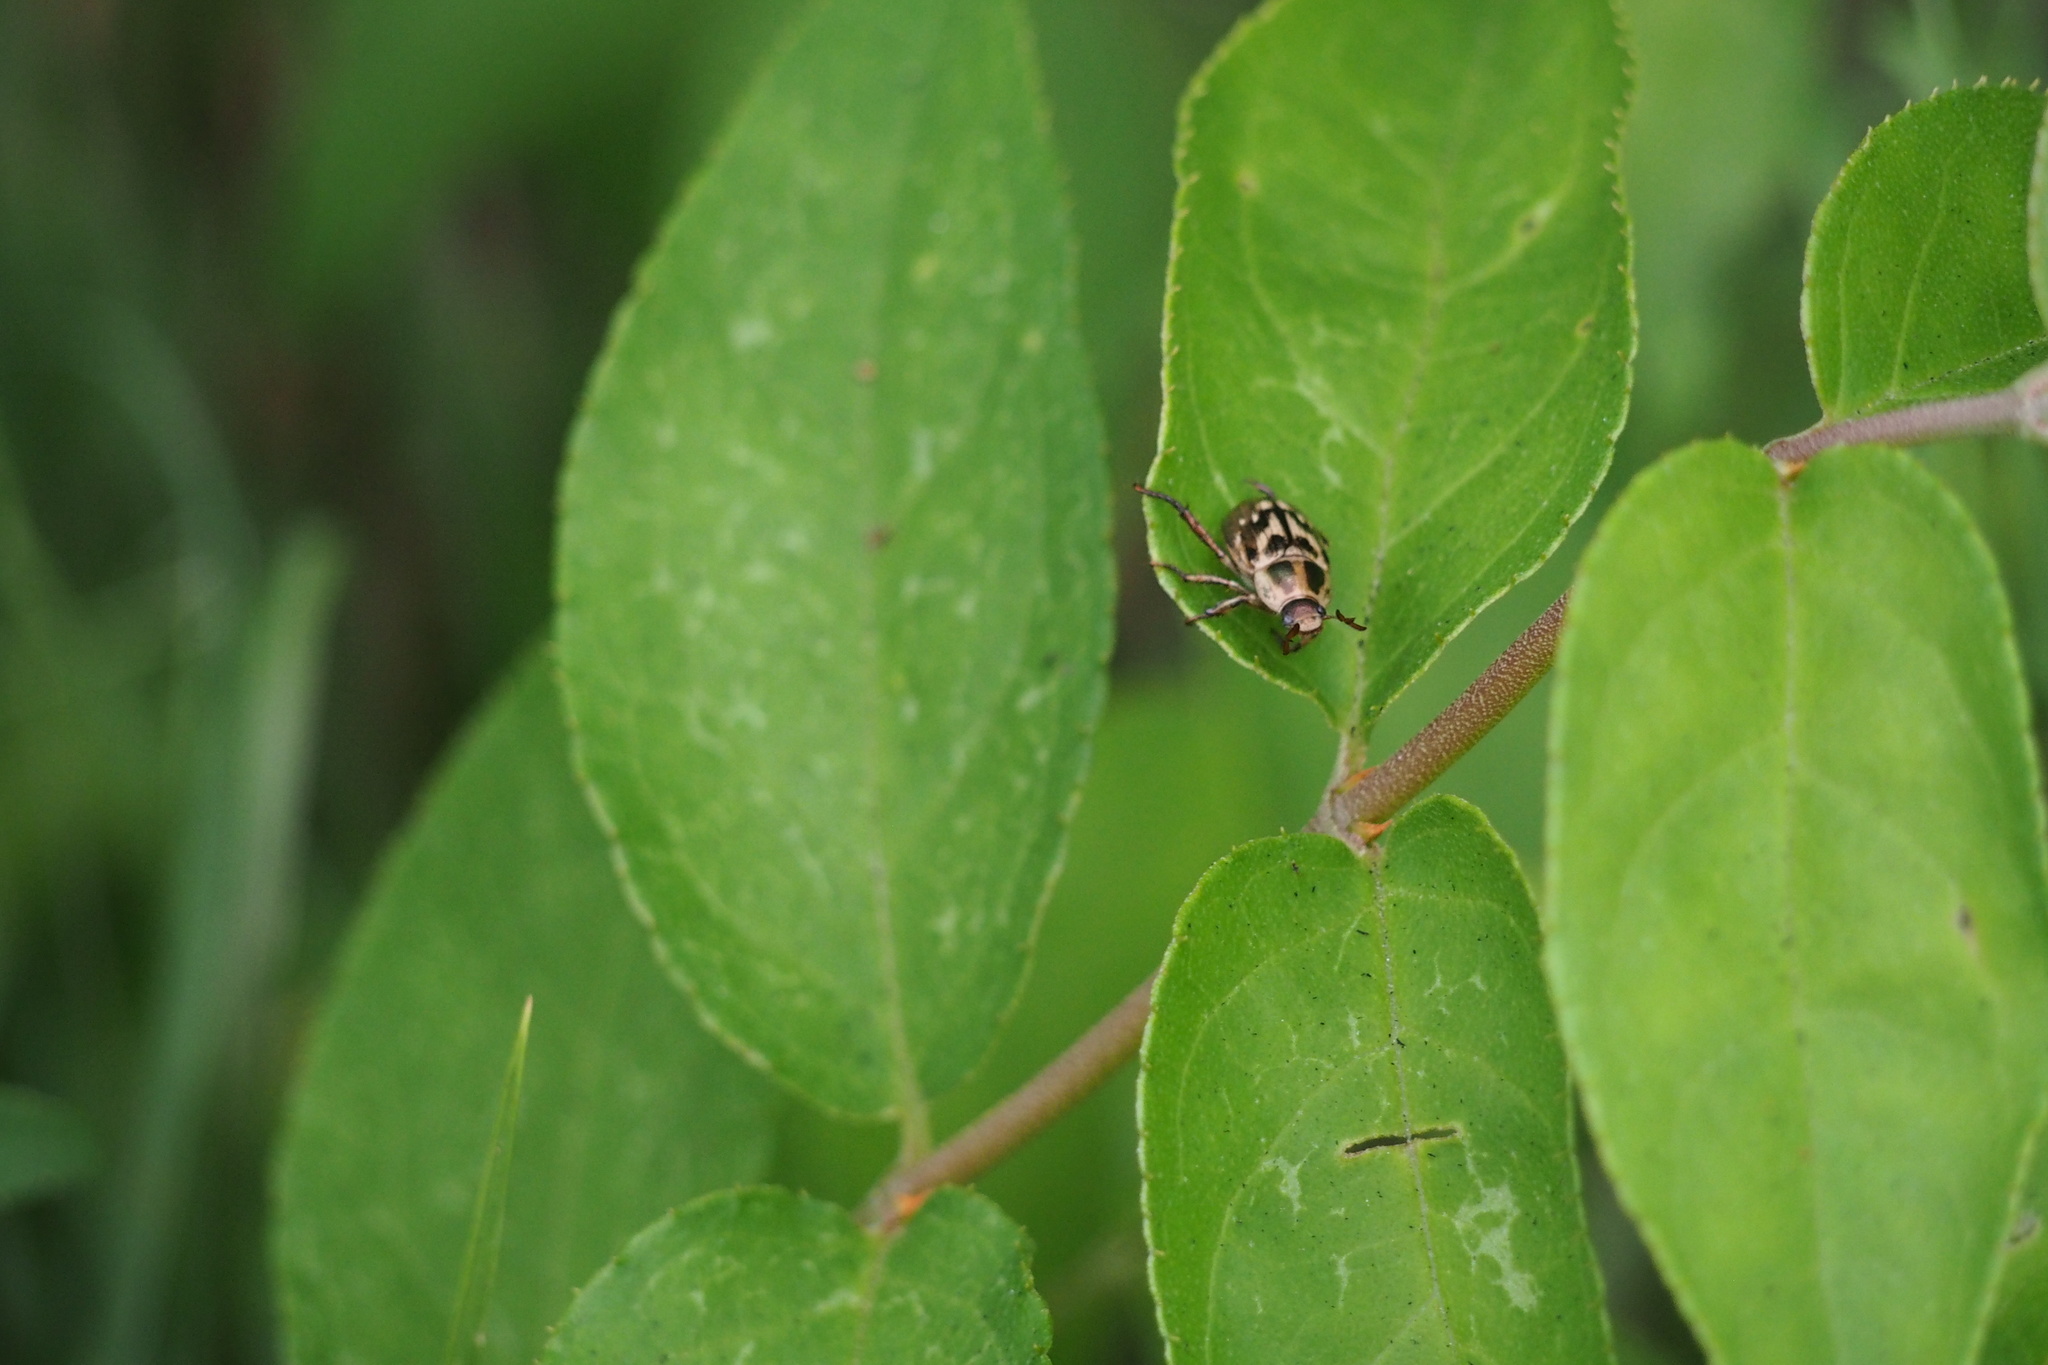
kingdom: Animalia
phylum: Arthropoda
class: Insecta
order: Coleoptera
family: Scarabaeidae
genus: Exomala
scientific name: Exomala orientalis
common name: Oriental beetle
